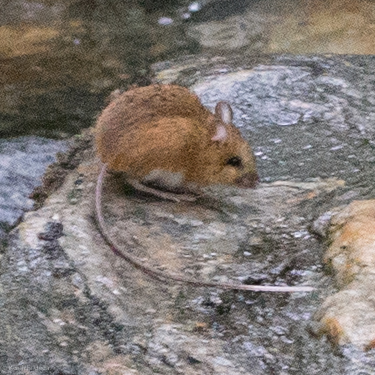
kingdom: Animalia
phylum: Chordata
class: Mammalia
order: Rodentia
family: Dipodidae
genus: Napaeozapus
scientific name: Napaeozapus insignis
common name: Woodland jumping mouse
